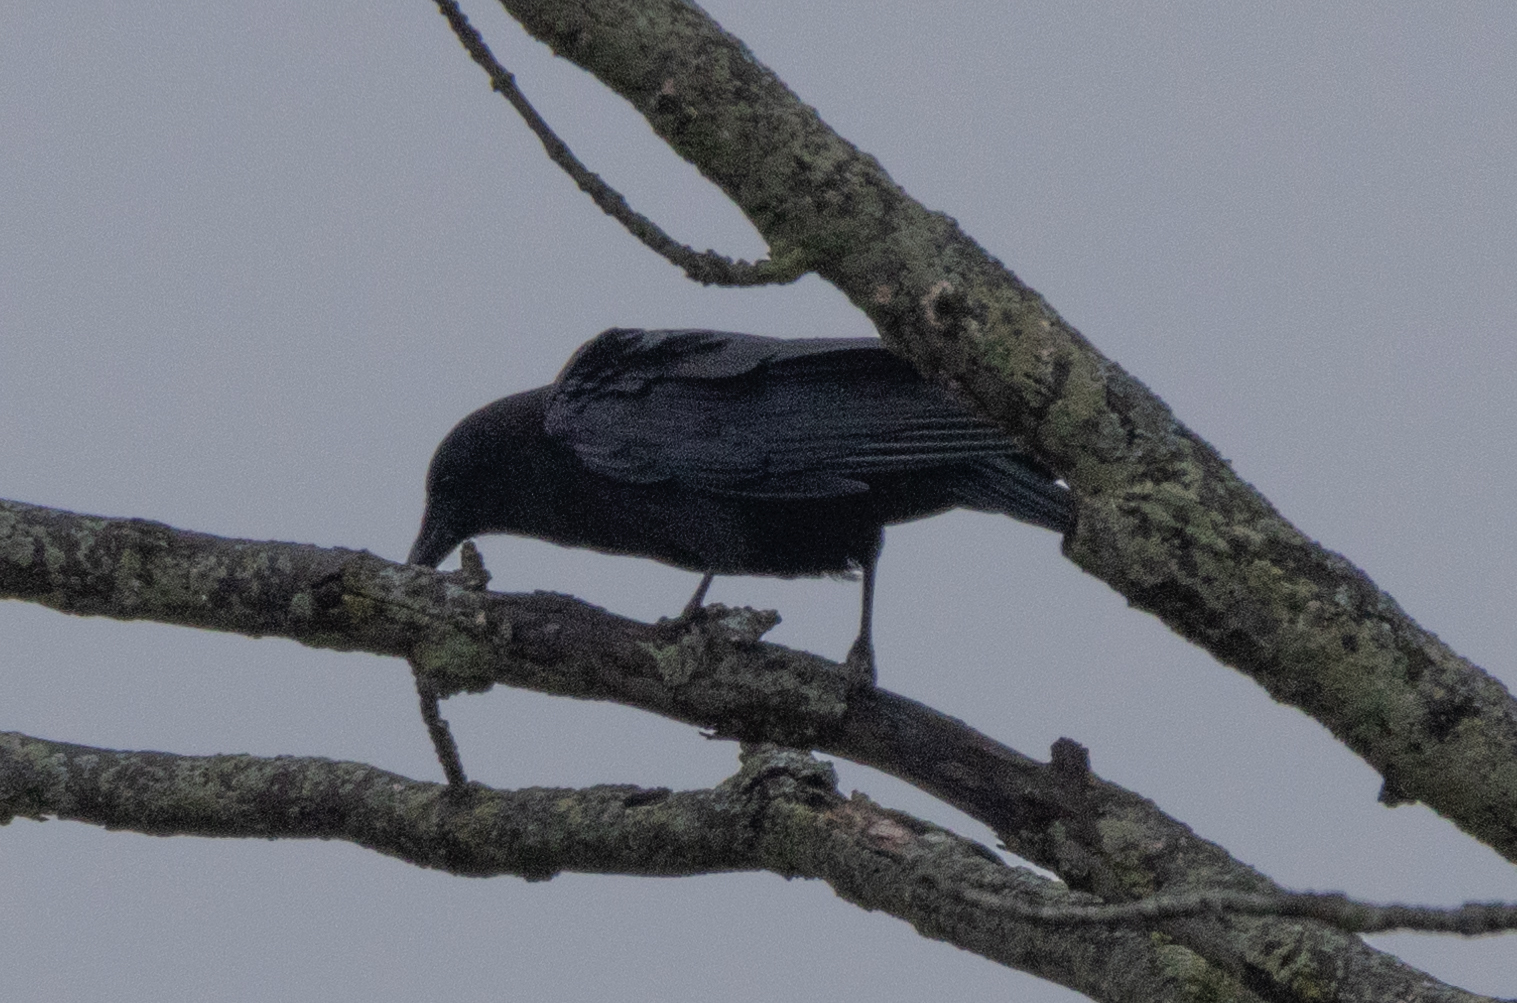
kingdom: Animalia
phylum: Chordata
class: Aves
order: Passeriformes
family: Corvidae
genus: Corvus
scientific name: Corvus brachyrhynchos
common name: American crow
